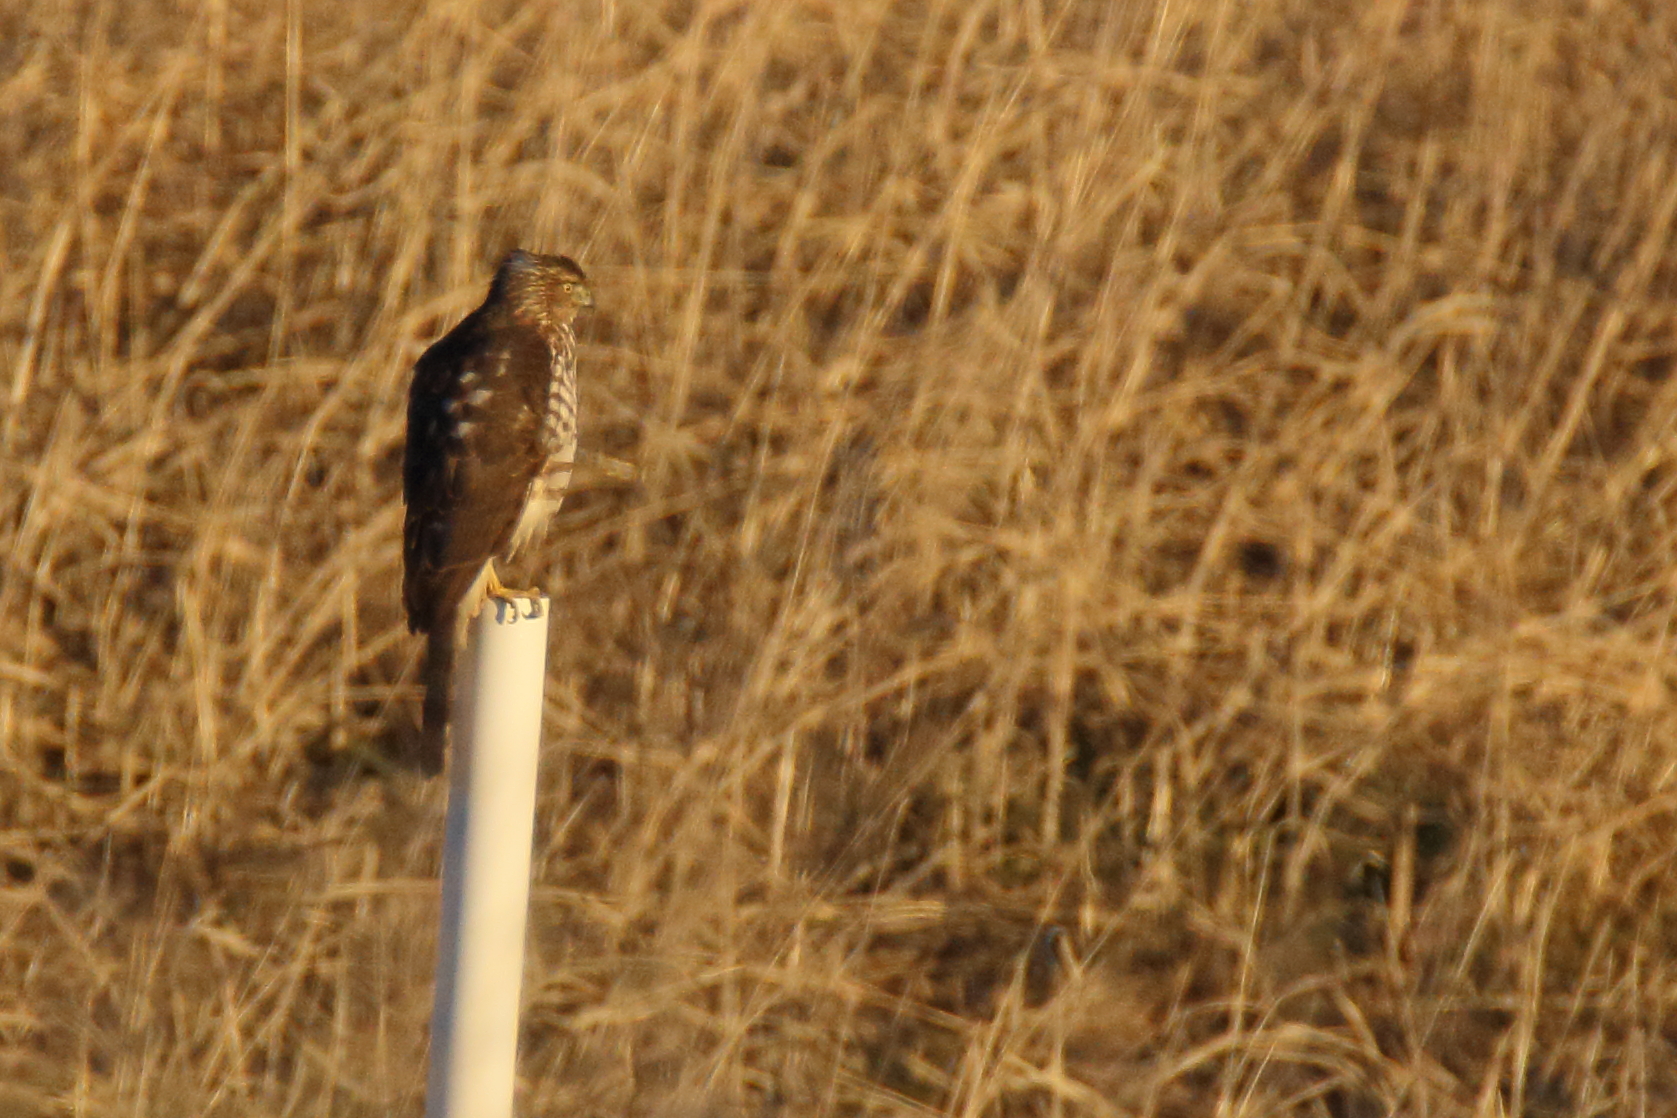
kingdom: Animalia
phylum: Chordata
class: Aves
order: Accipitriformes
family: Accipitridae
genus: Accipiter
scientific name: Accipiter cooperii
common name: Cooper's hawk
